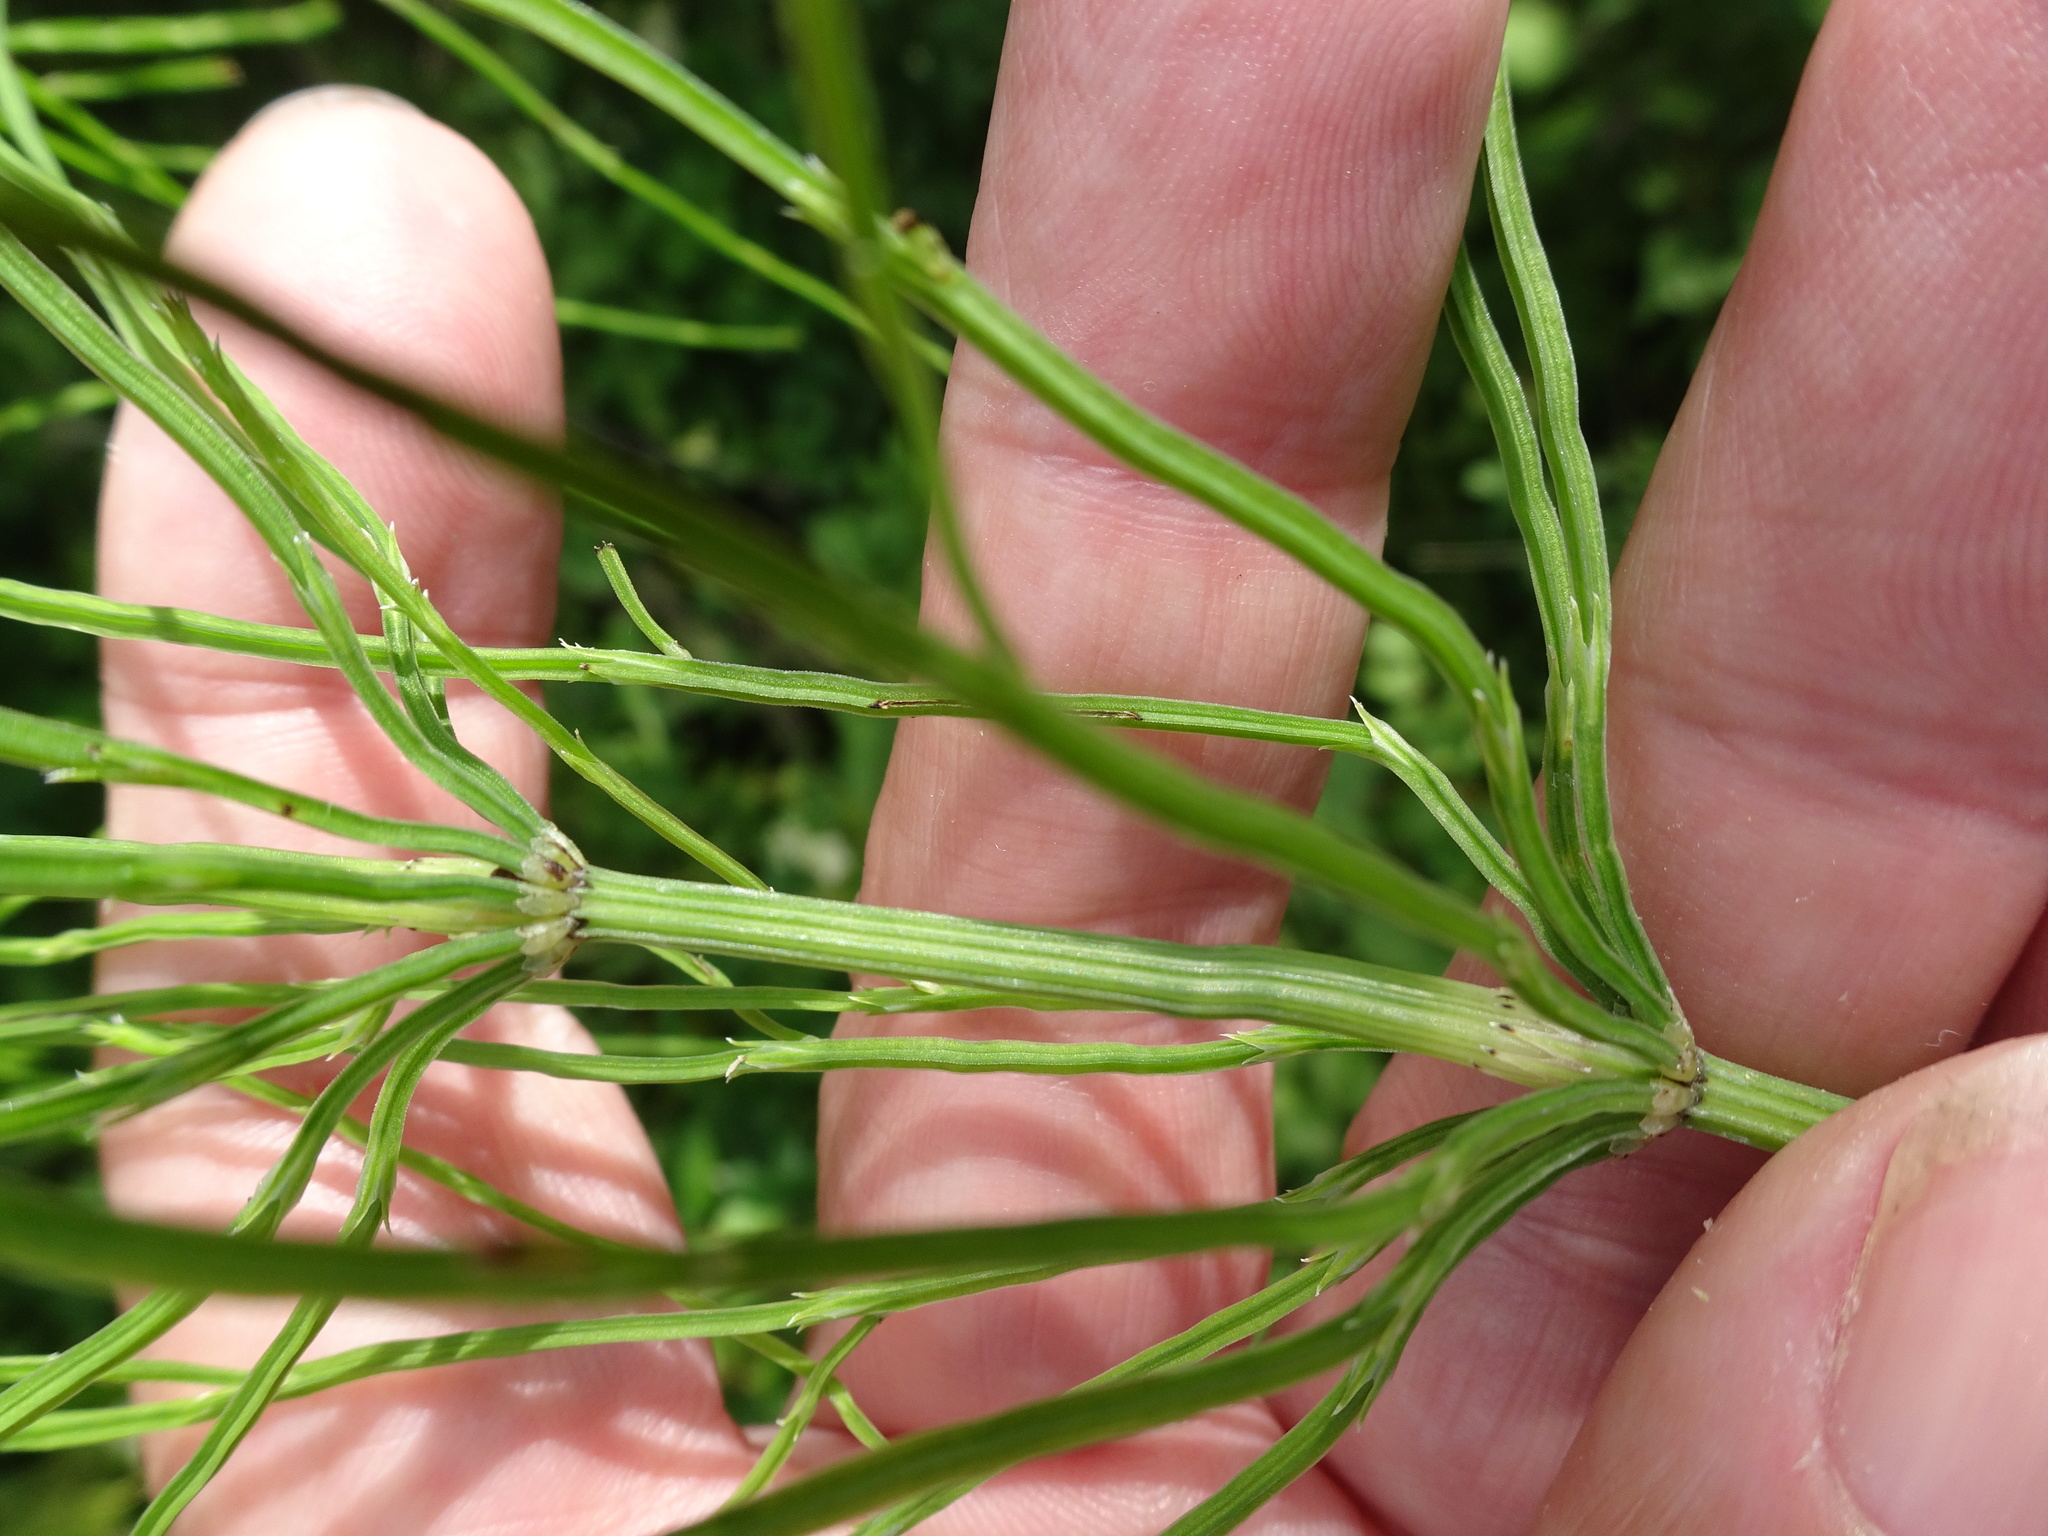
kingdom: Plantae
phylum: Tracheophyta
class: Polypodiopsida
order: Equisetales
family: Equisetaceae
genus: Equisetum
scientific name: Equisetum arvense
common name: Field horsetail
